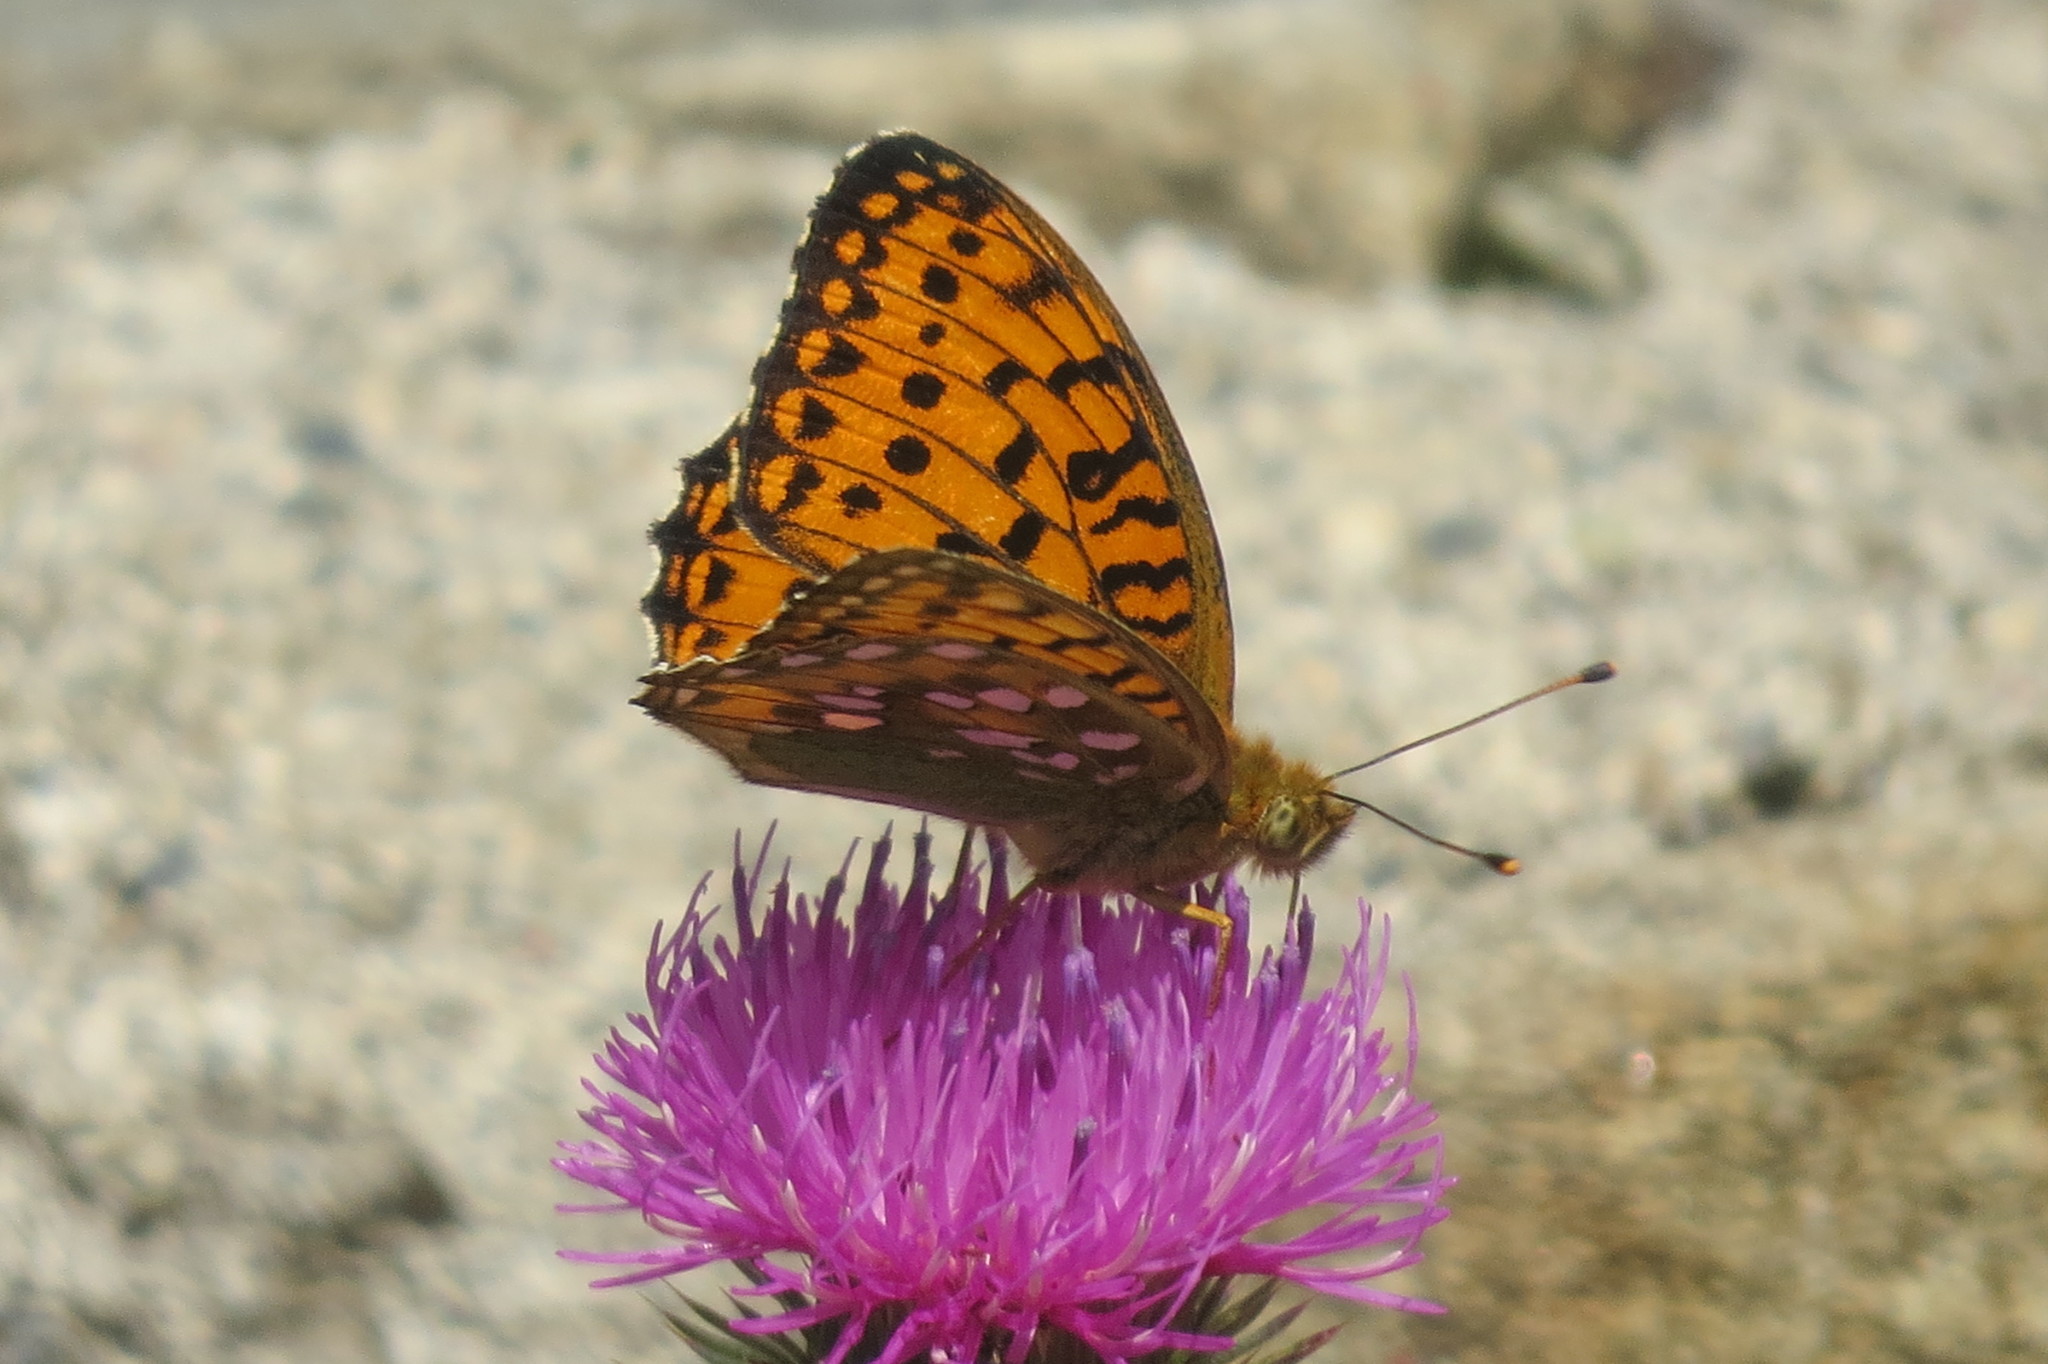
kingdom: Animalia
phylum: Arthropoda
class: Insecta
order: Lepidoptera
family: Nymphalidae
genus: Speyeria
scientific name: Speyeria aglaja
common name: Dark green fritillary
